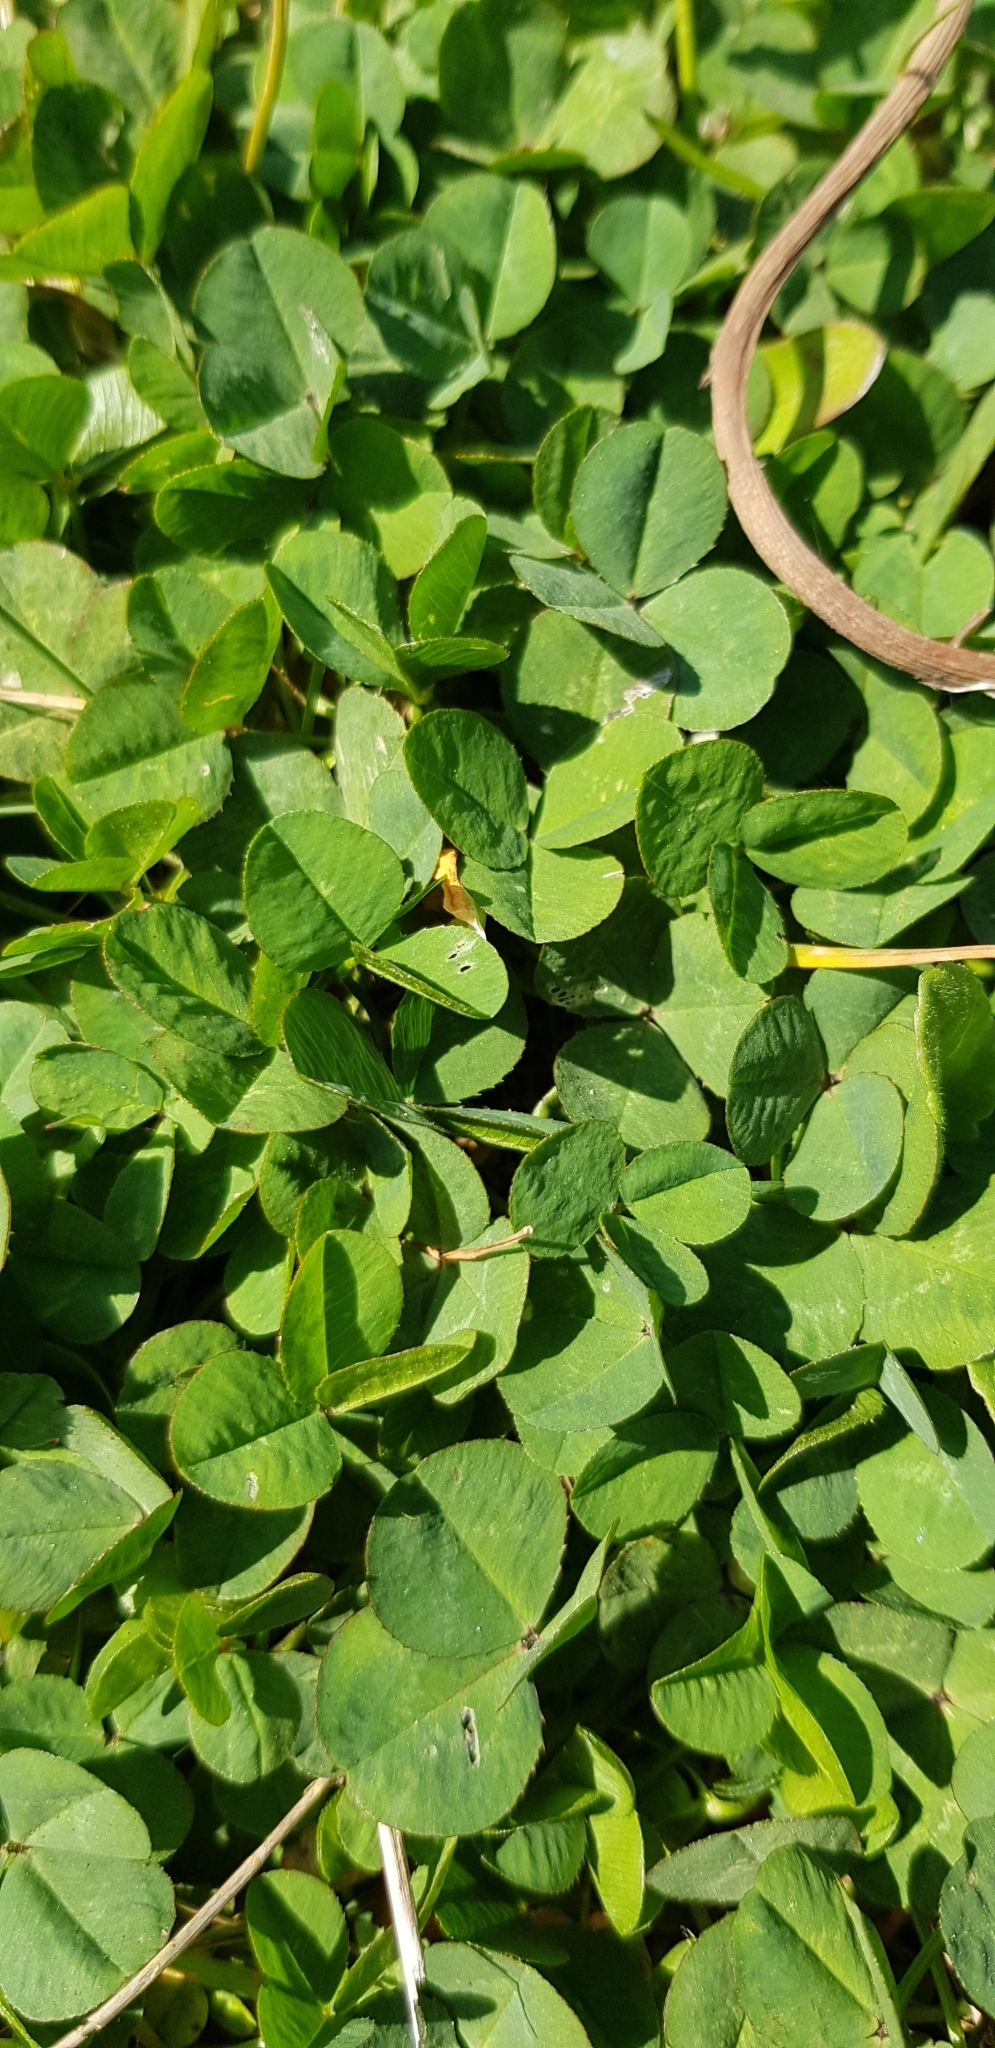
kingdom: Plantae
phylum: Tracheophyta
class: Magnoliopsida
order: Fabales
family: Fabaceae
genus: Trifolium
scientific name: Trifolium repens
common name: White clover
